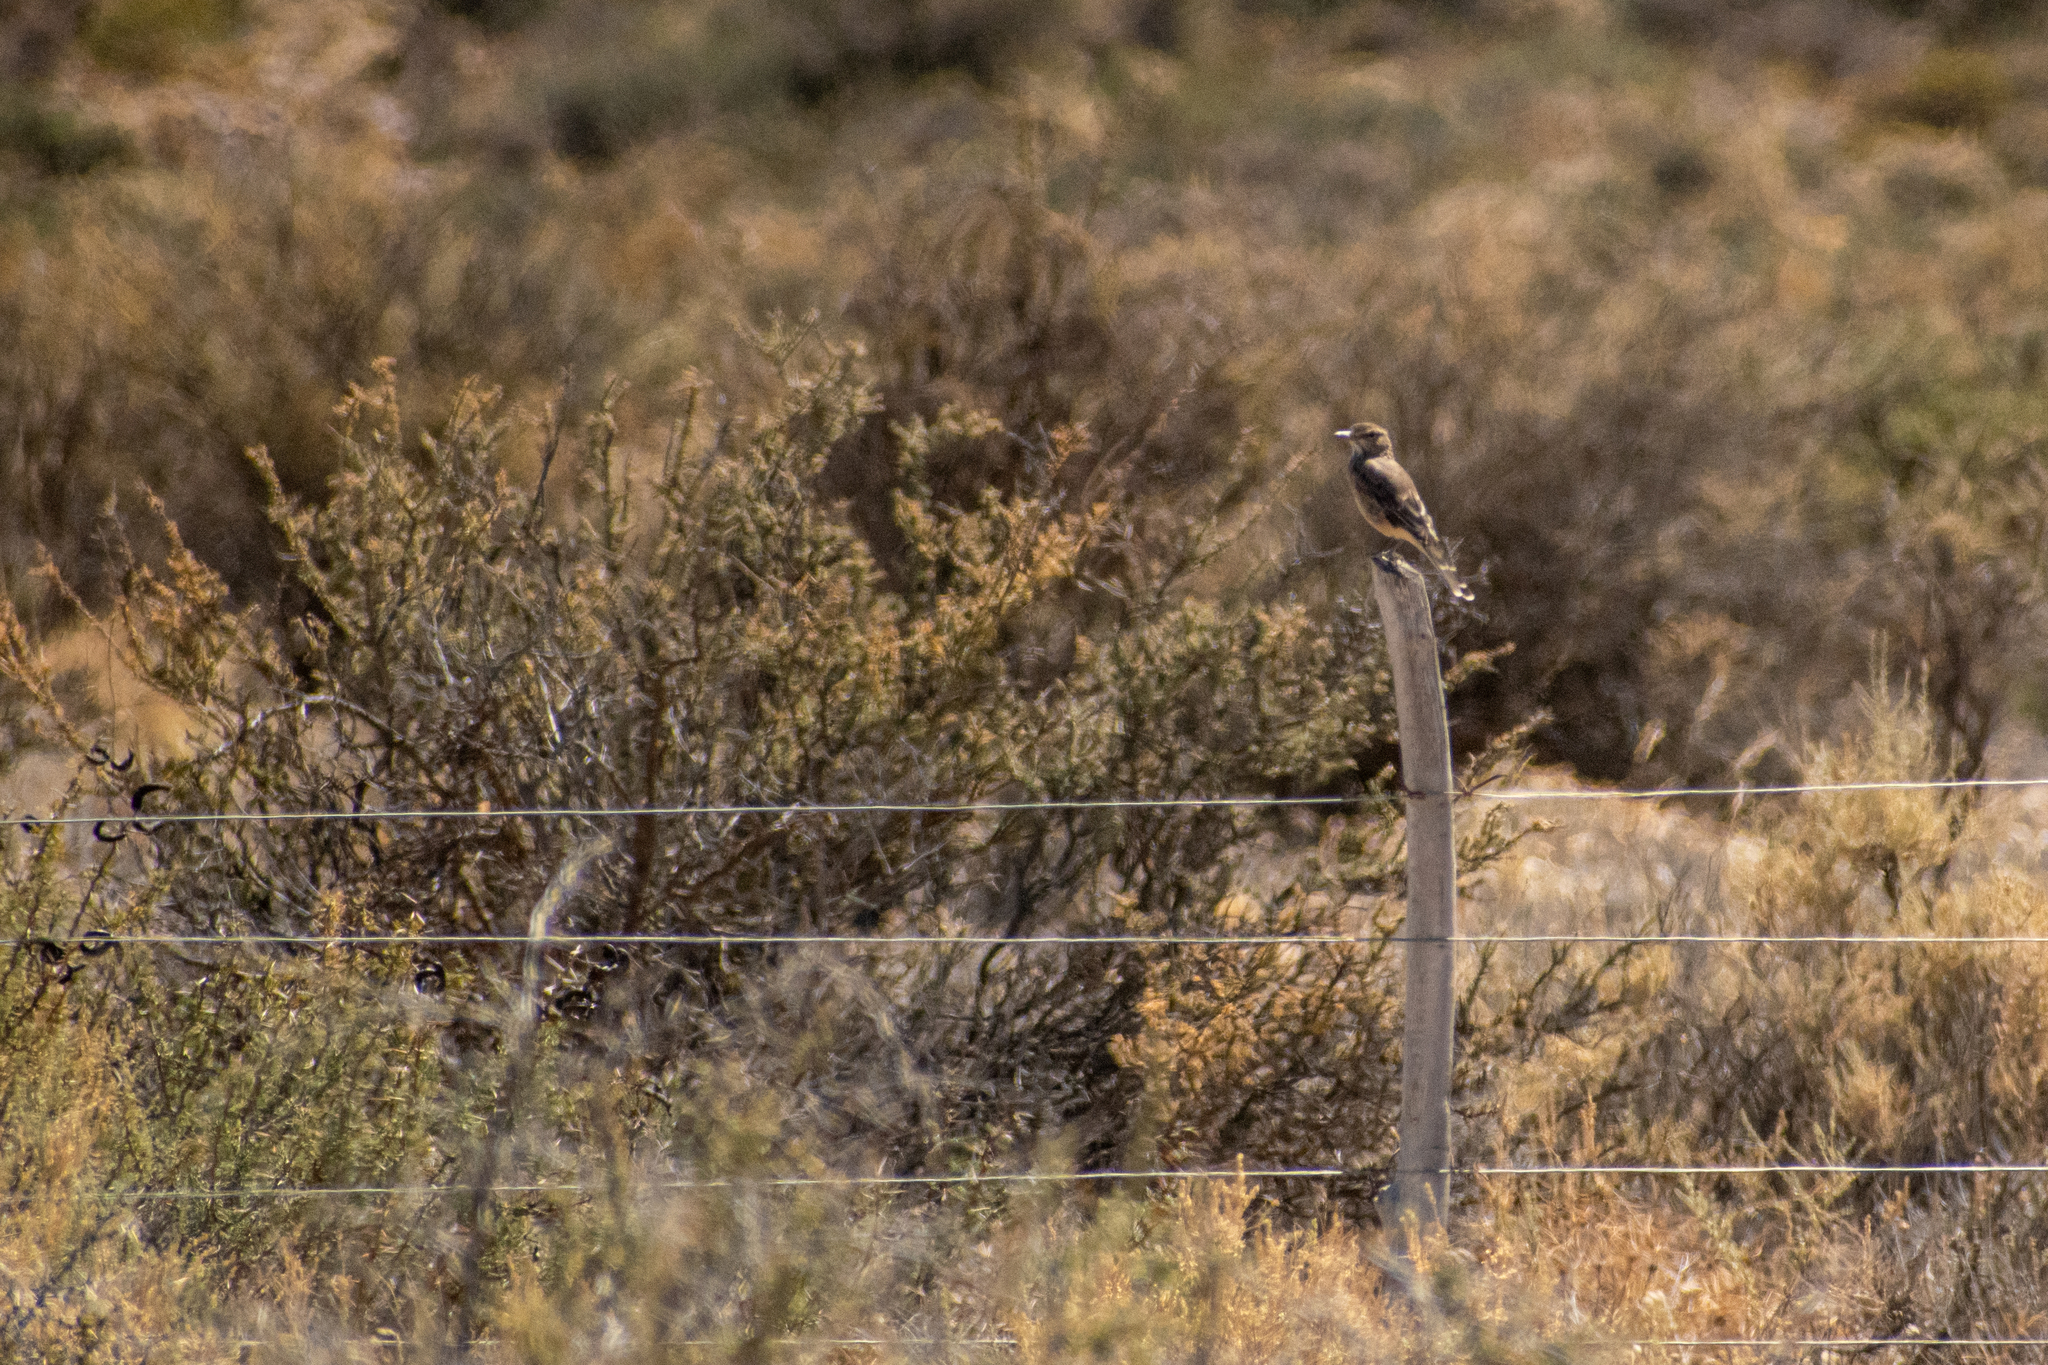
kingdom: Animalia
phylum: Chordata
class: Aves
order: Passeriformes
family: Tyrannidae
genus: Agriornis
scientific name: Agriornis micropterus
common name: Grey-bellied shrike-tyrant
